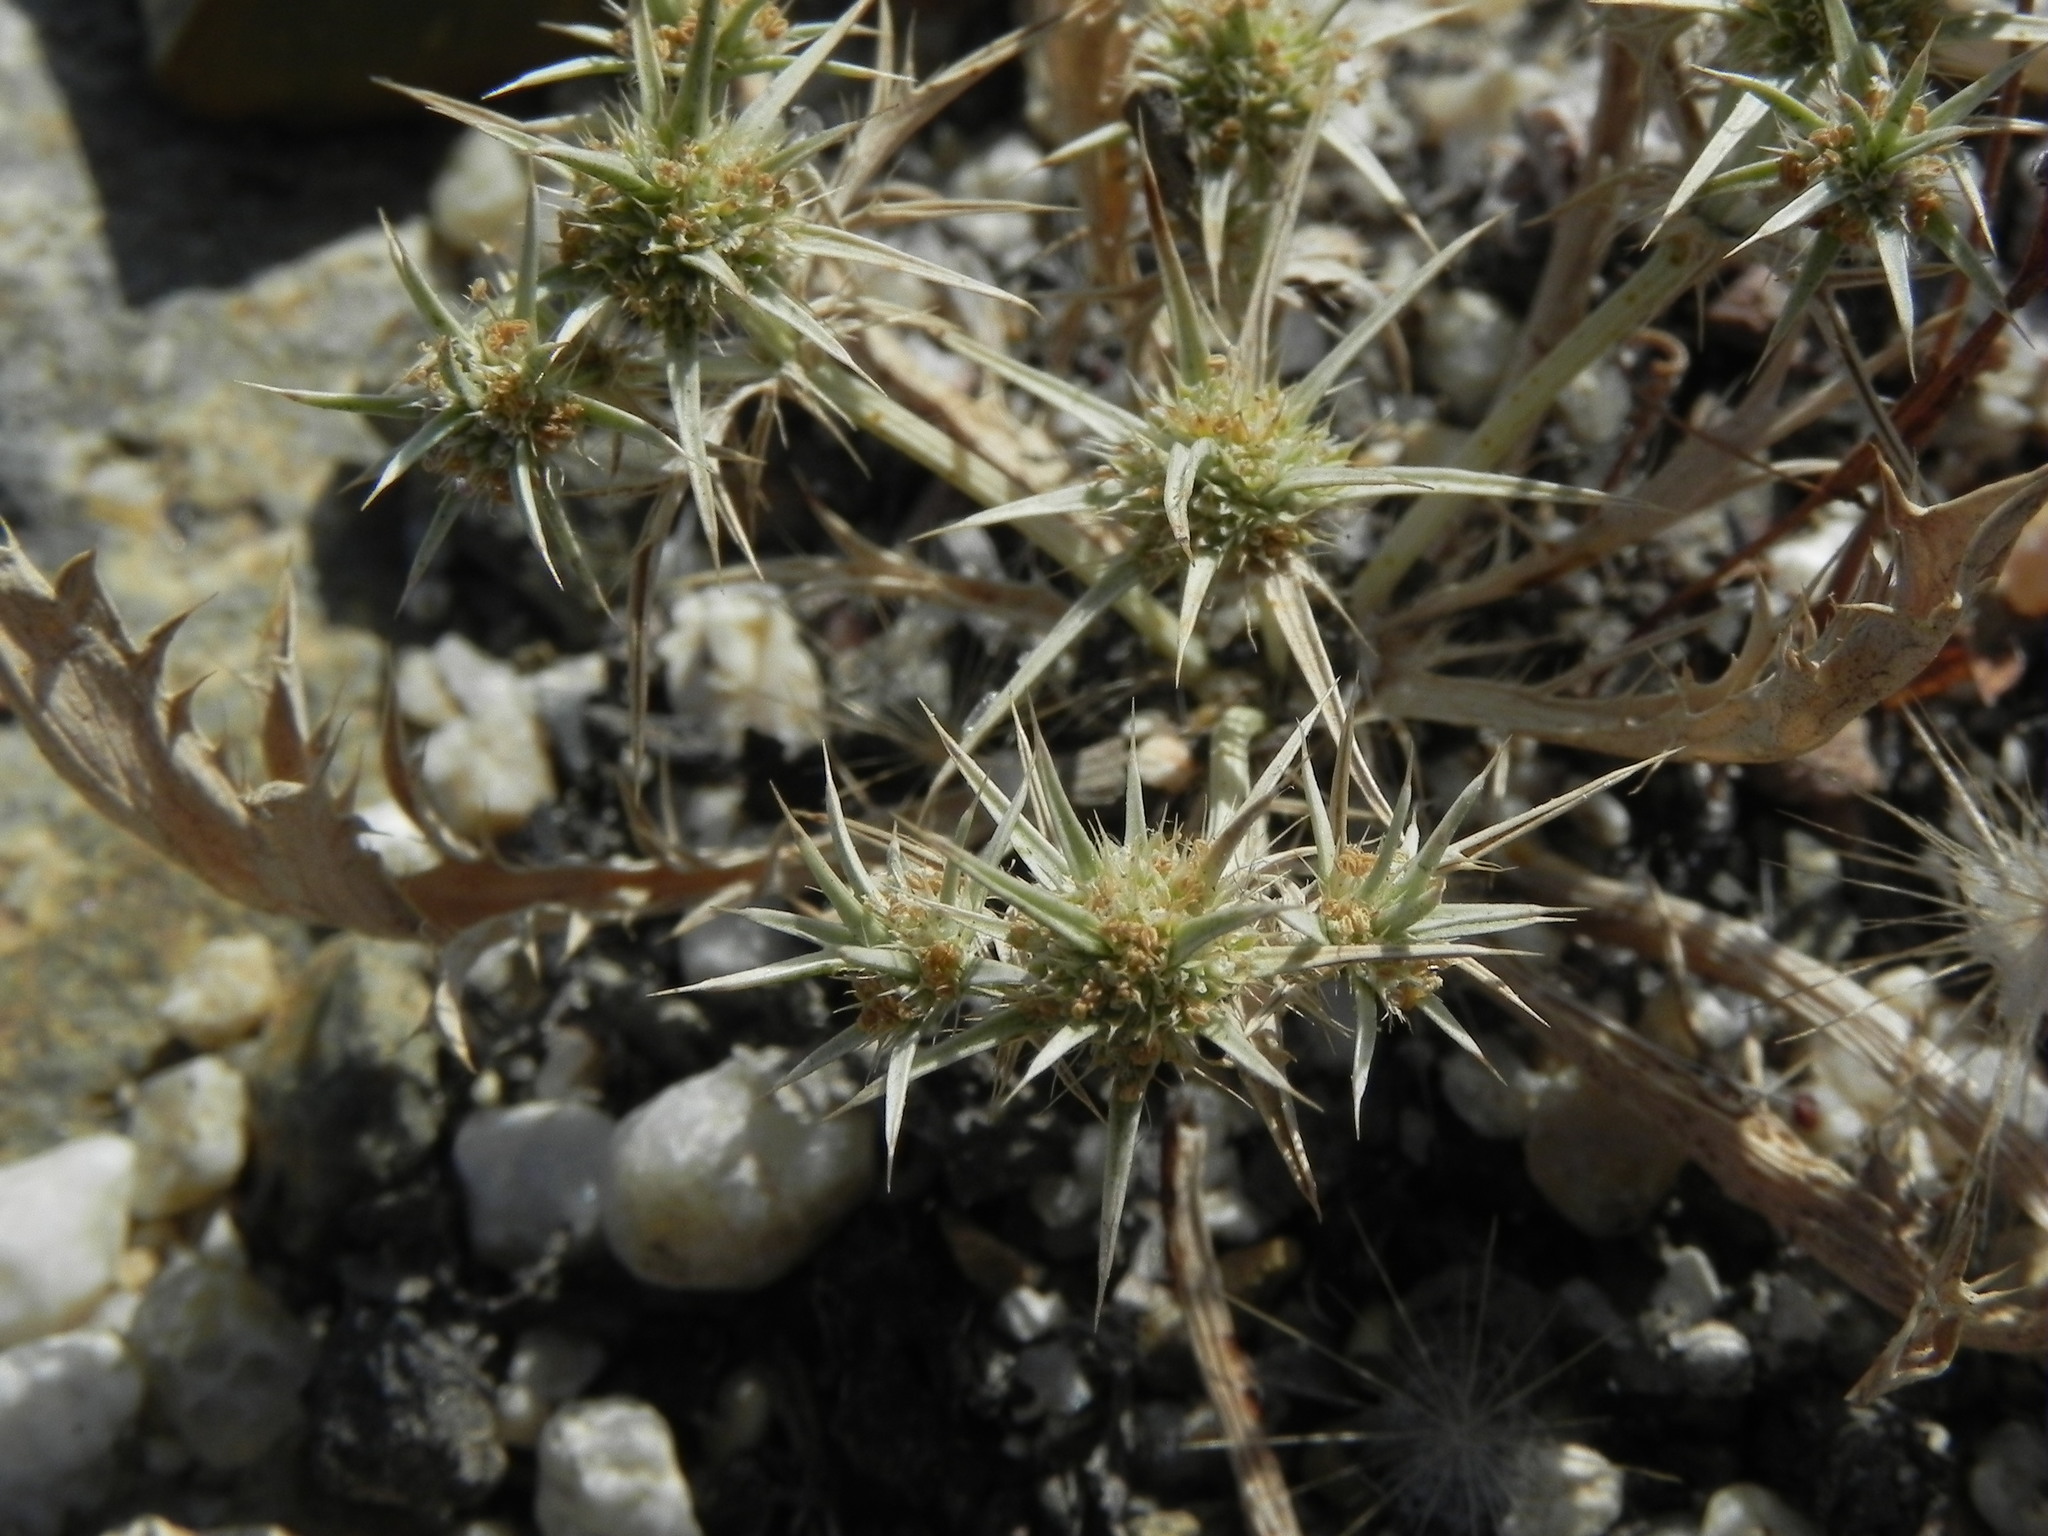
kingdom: Plantae
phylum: Tracheophyta
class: Magnoliopsida
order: Apiales
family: Apiaceae
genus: Eryngium
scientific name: Eryngium aristulatum
